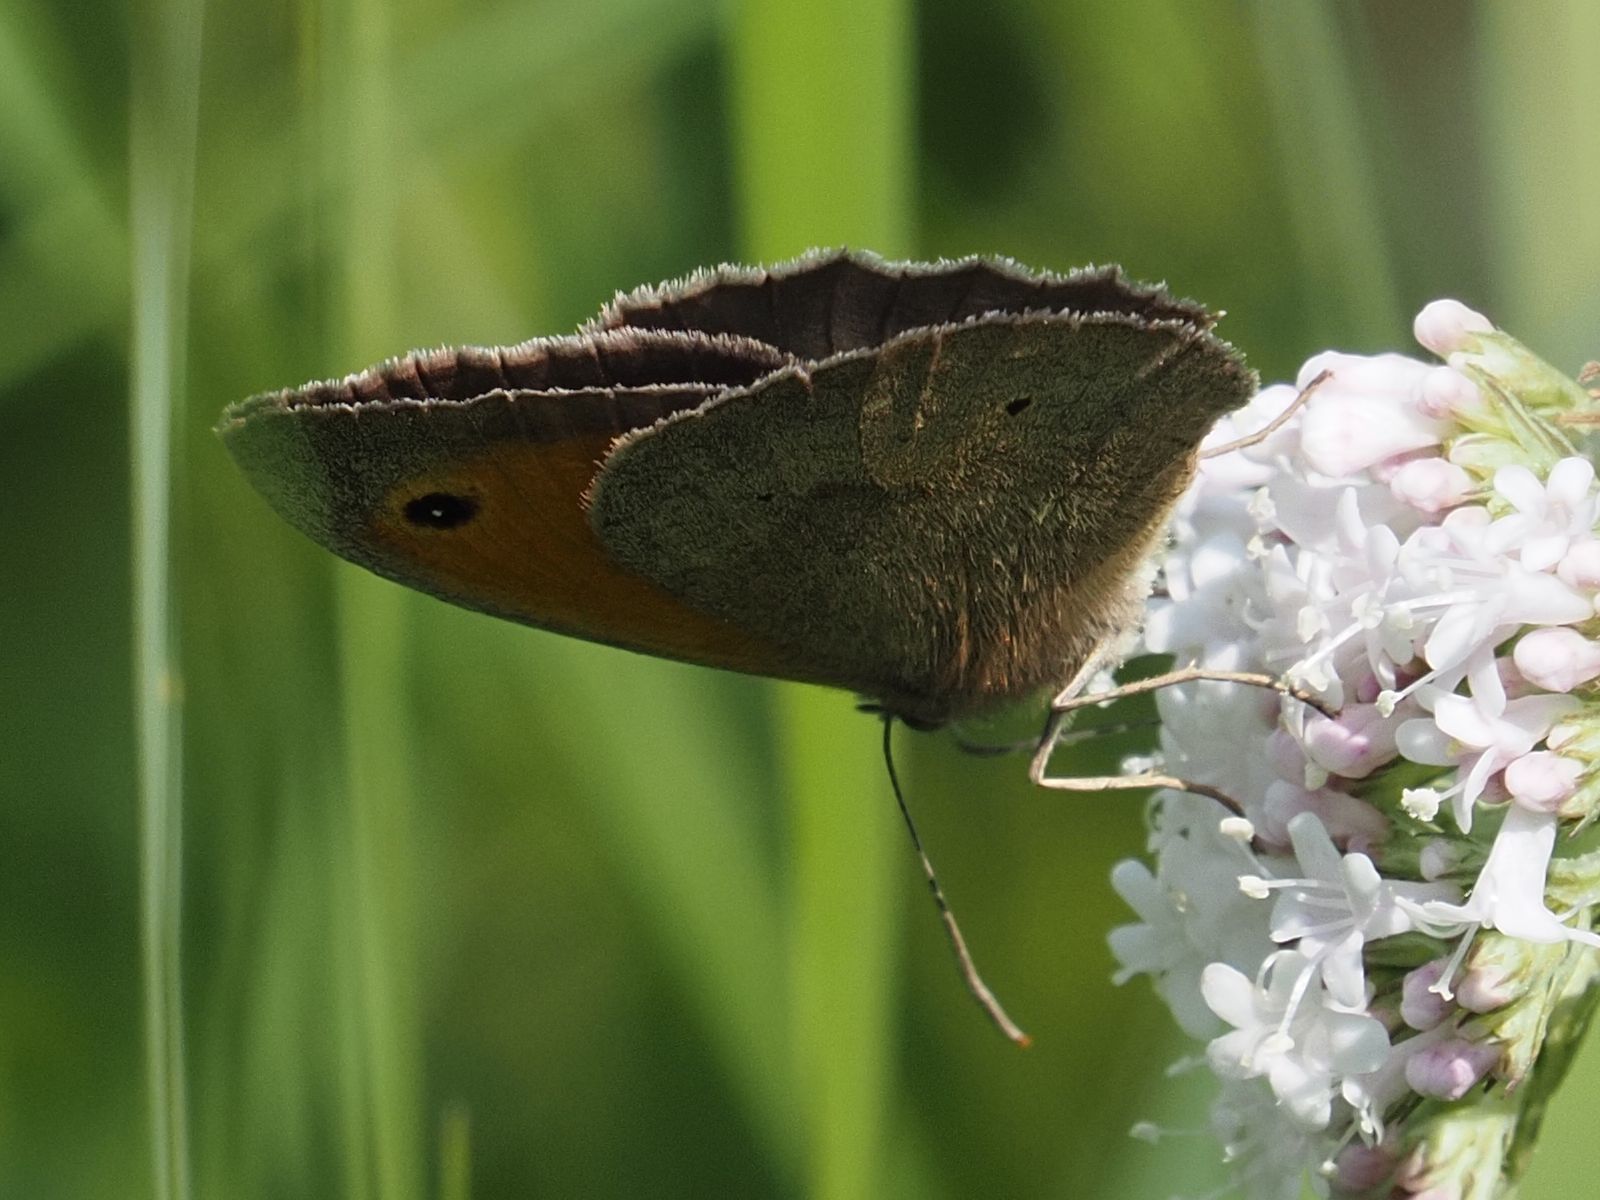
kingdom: Animalia
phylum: Arthropoda
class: Insecta
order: Lepidoptera
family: Nymphalidae
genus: Maniola
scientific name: Maniola jurtina
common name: Meadow brown
